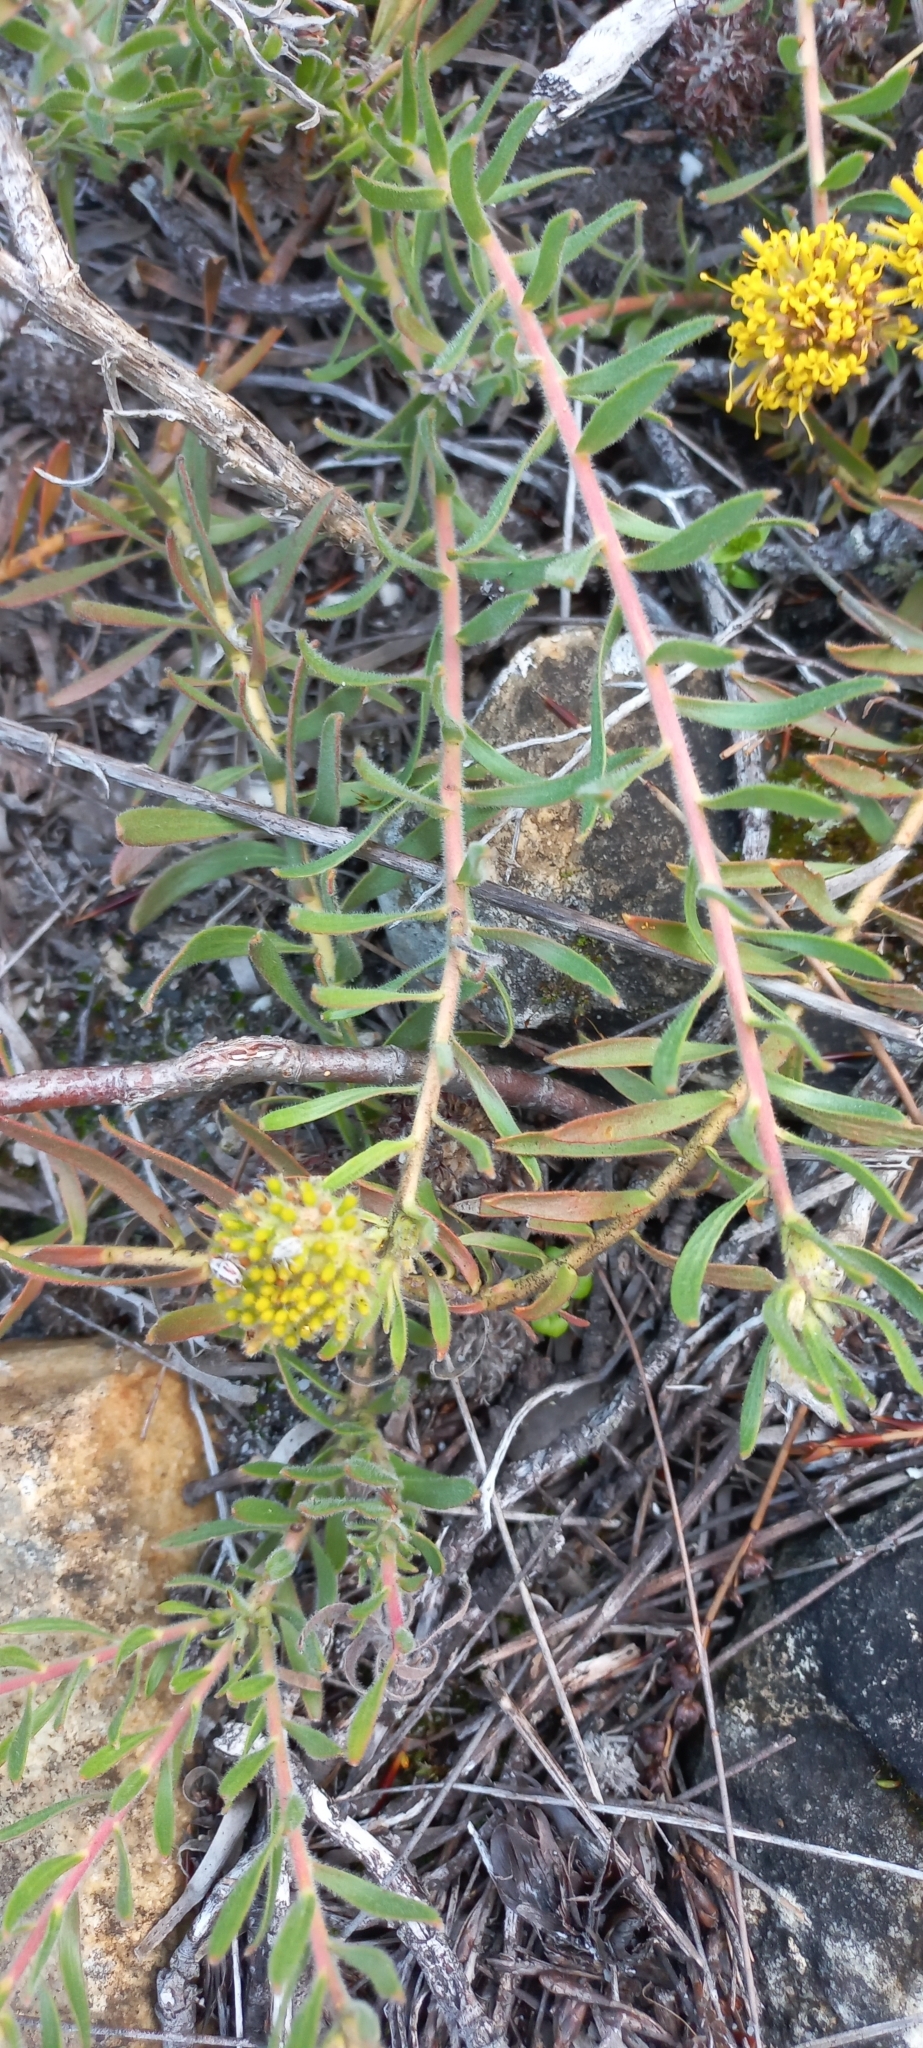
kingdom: Plantae
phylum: Tracheophyta
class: Magnoliopsida
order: Proteales
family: Proteaceae
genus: Leucospermum
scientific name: Leucospermum prostratum
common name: Yellow-trailing pincushion
